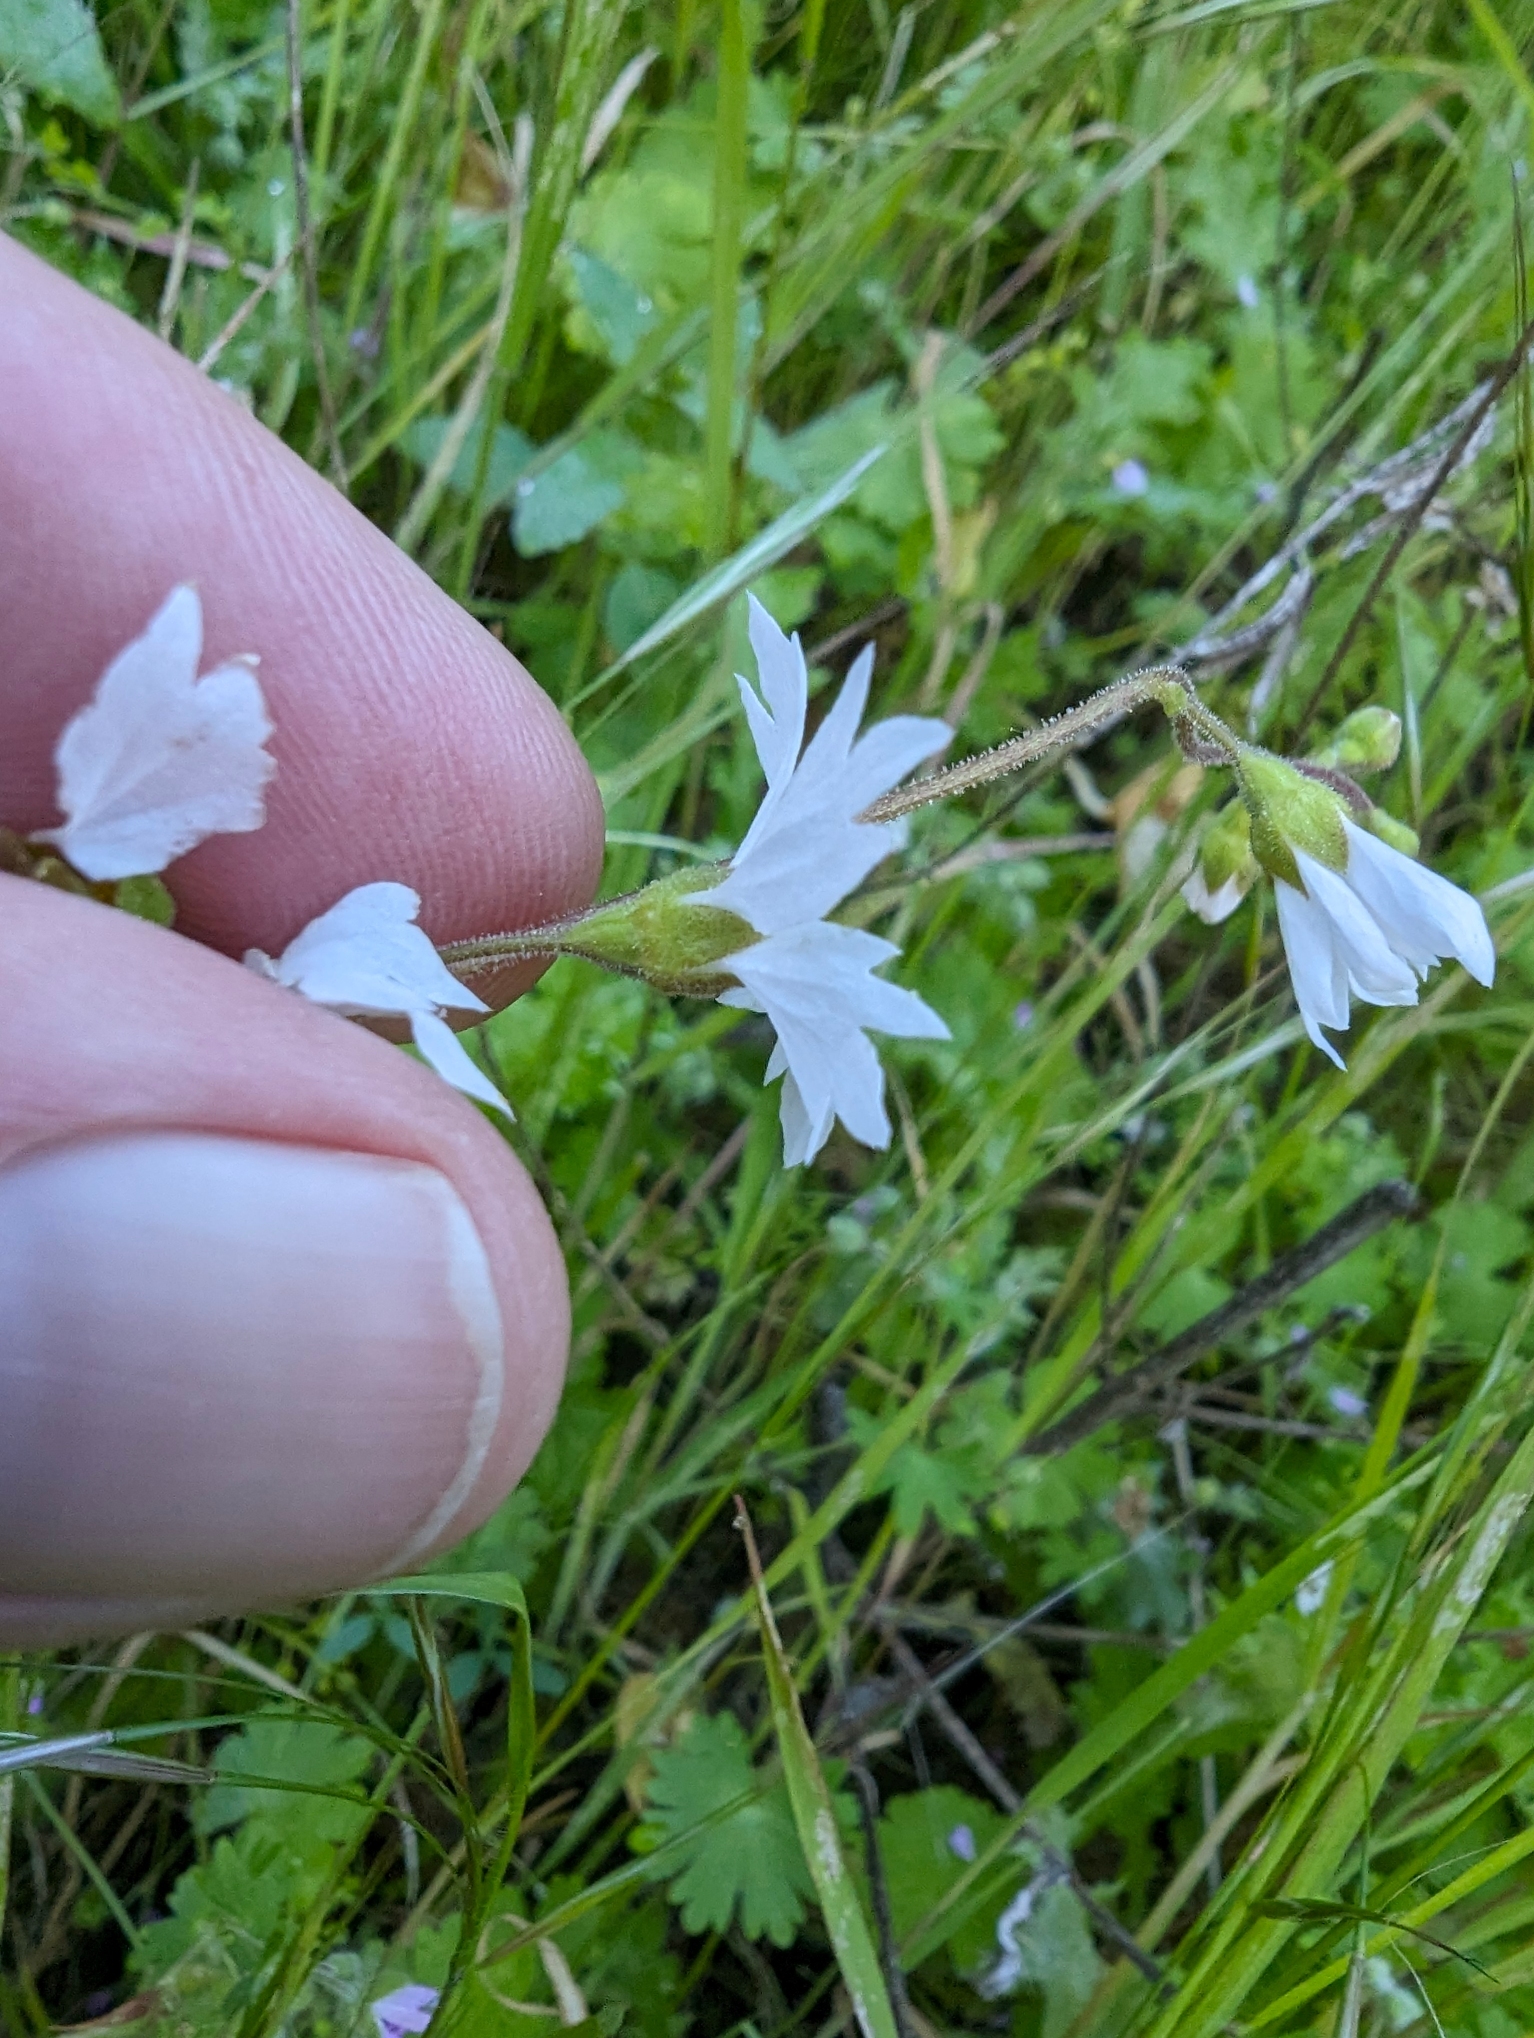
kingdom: Plantae
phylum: Tracheophyta
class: Magnoliopsida
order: Saxifragales
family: Saxifragaceae
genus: Lithophragma
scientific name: Lithophragma affine
